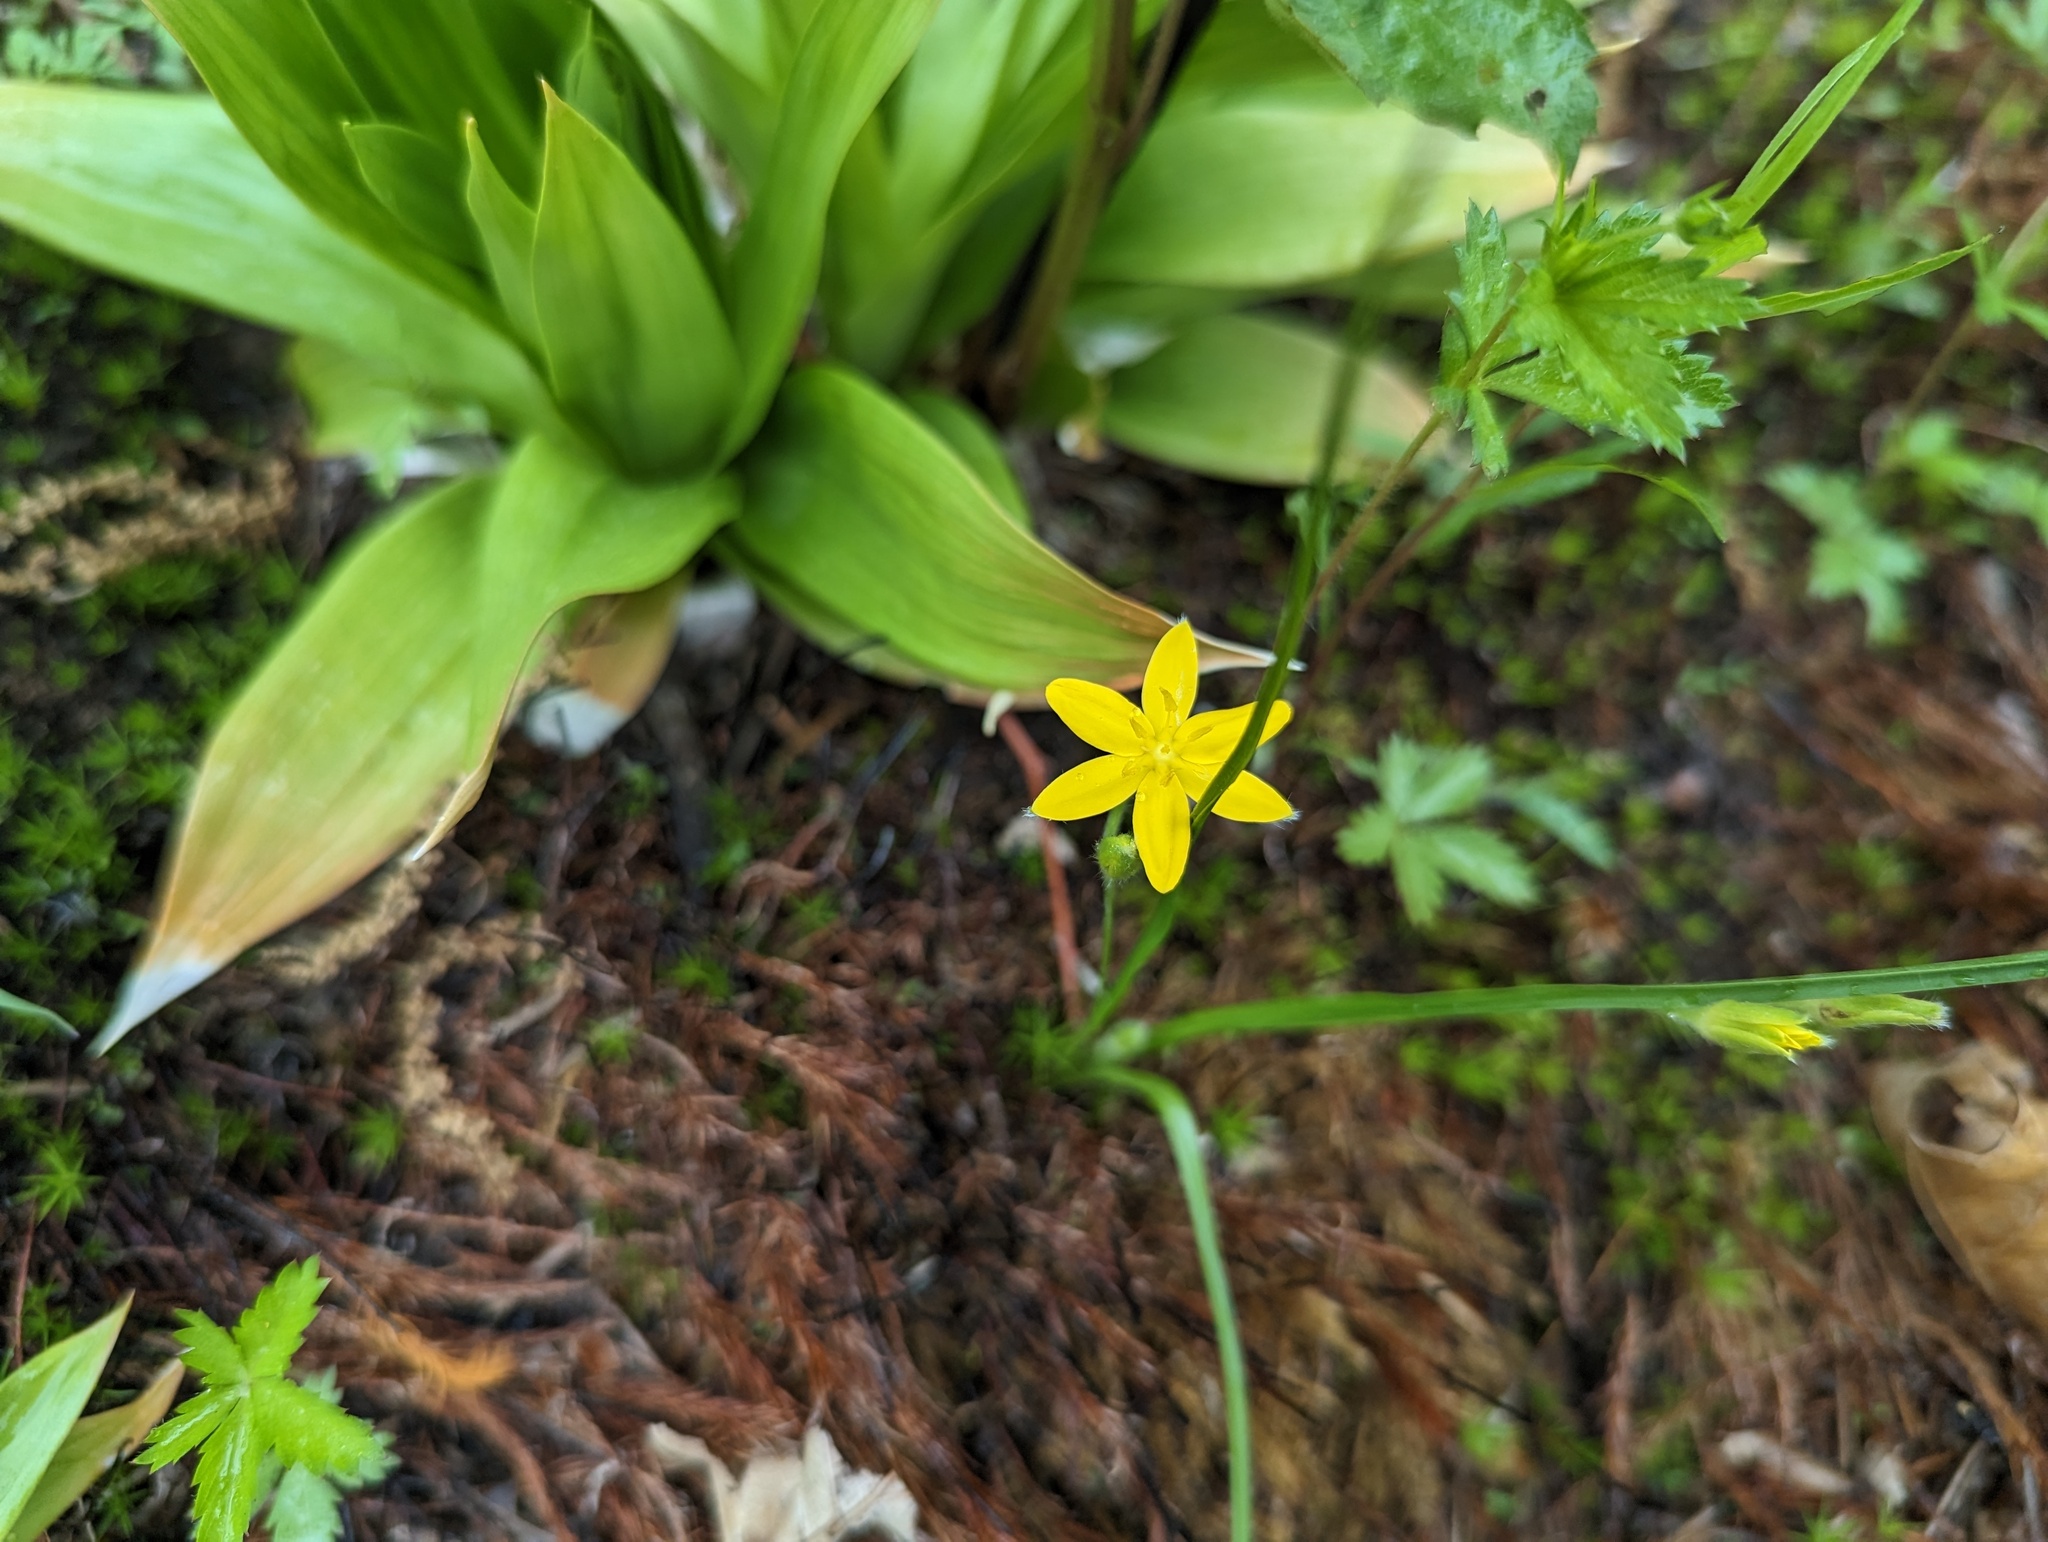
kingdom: Plantae
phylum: Tracheophyta
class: Liliopsida
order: Asparagales
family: Hypoxidaceae
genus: Hypoxis
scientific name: Hypoxis hirsuta
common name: Common goldstar
